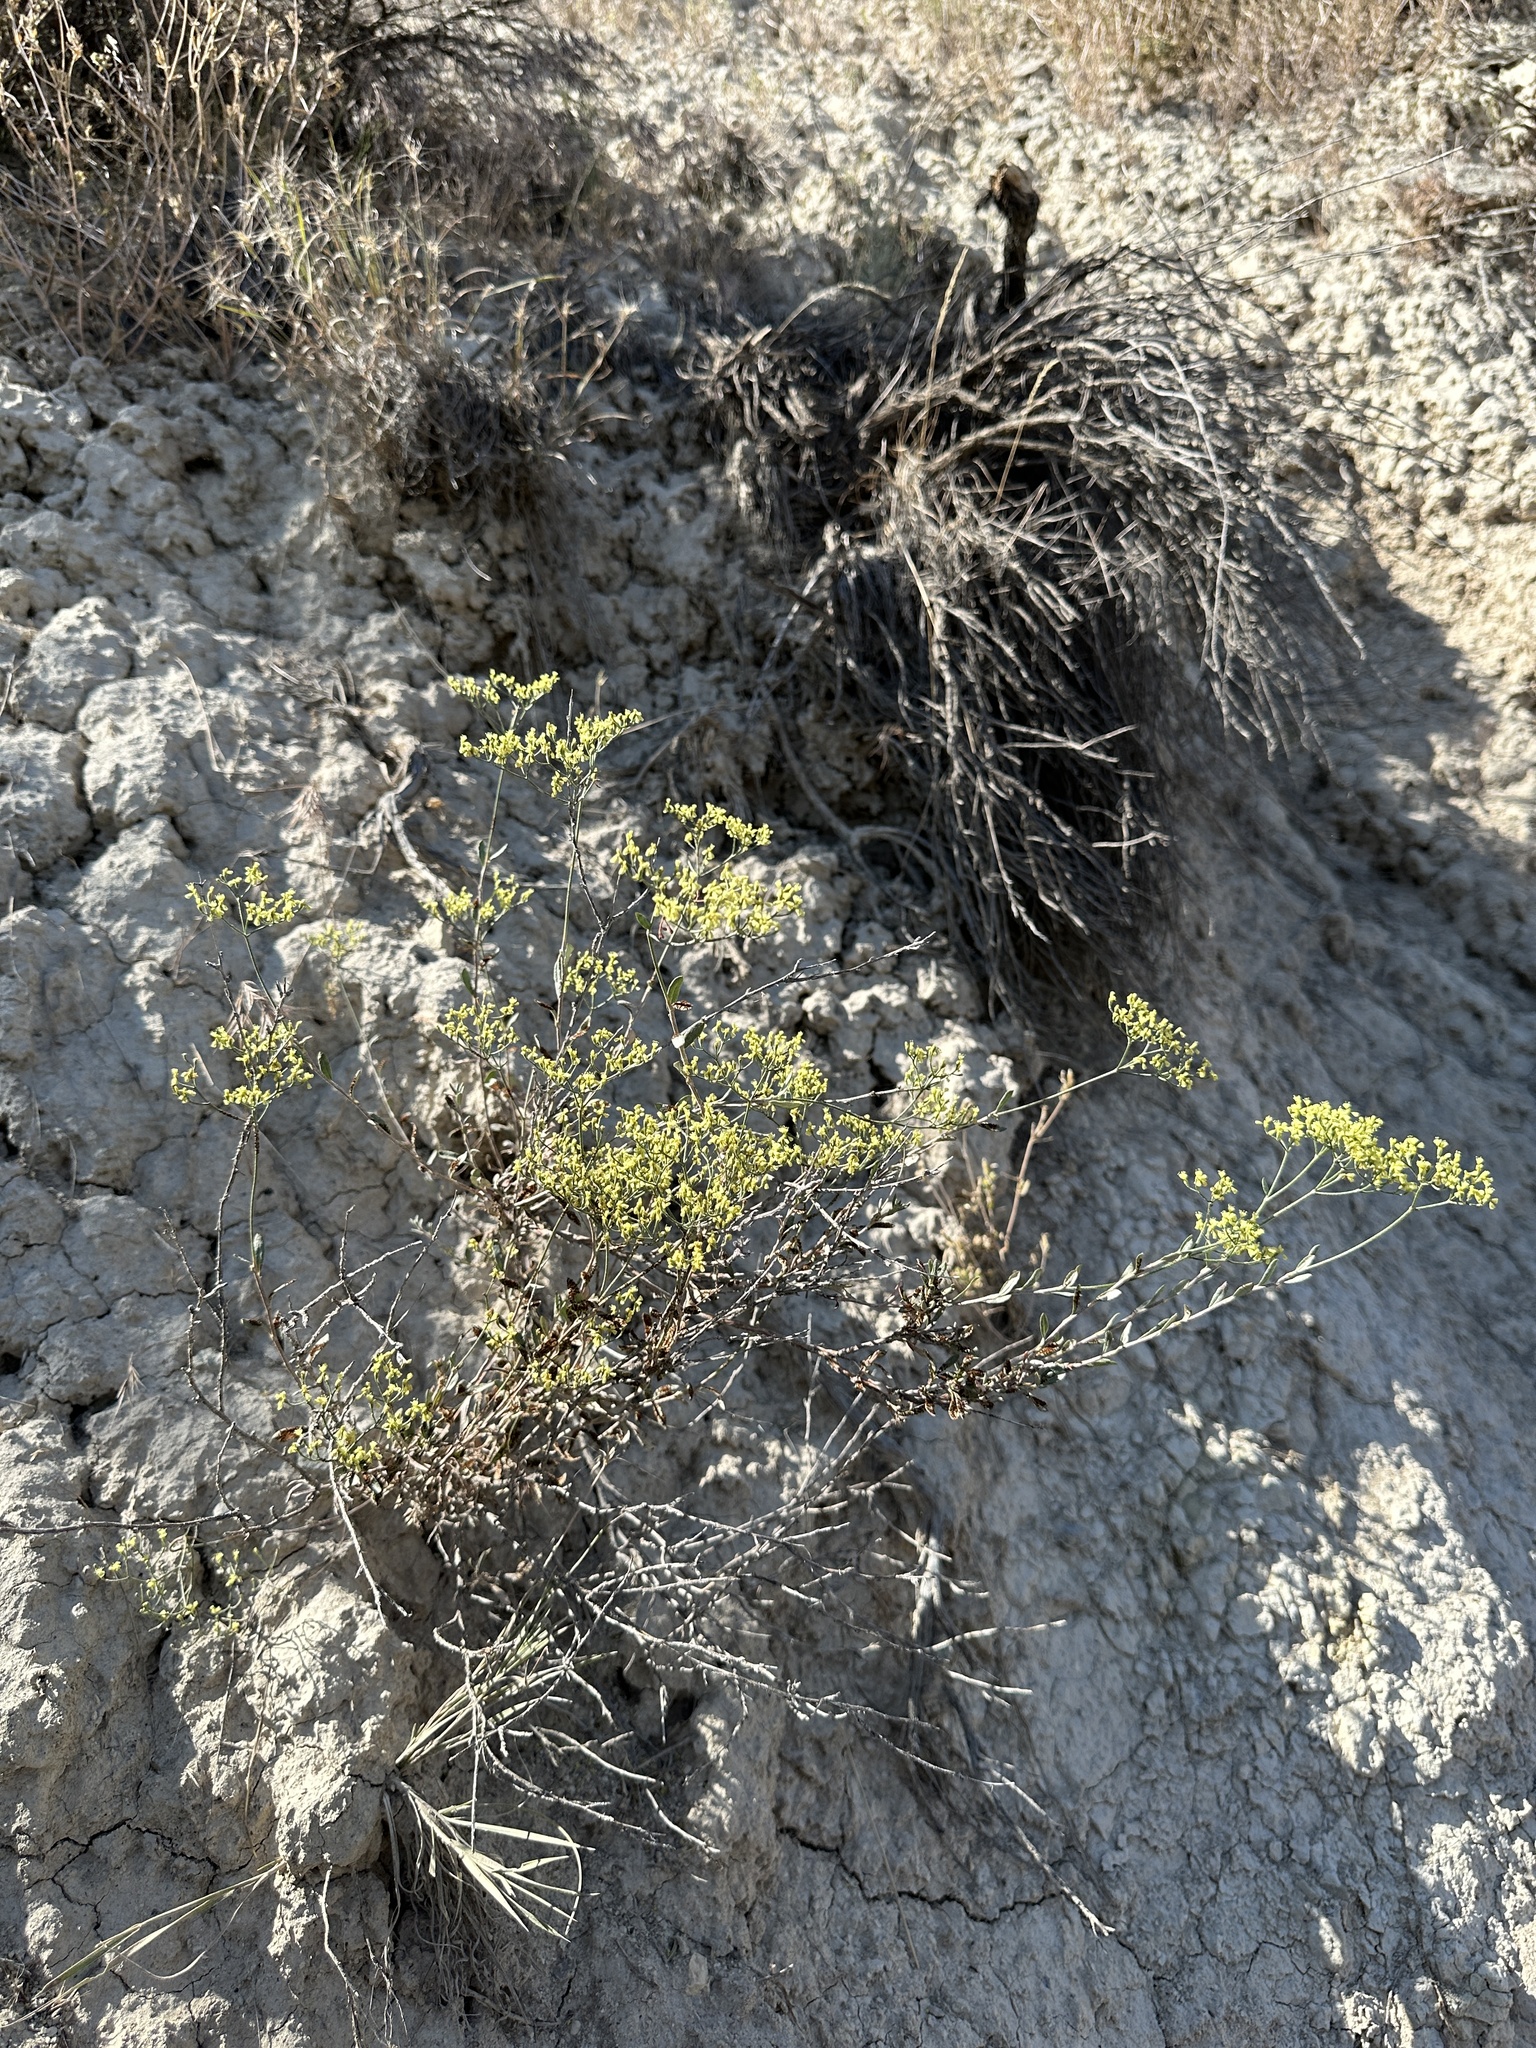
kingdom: Plantae
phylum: Tracheophyta
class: Magnoliopsida
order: Caryophyllales
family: Polygonaceae
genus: Eriogonum
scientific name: Eriogonum microtheca
